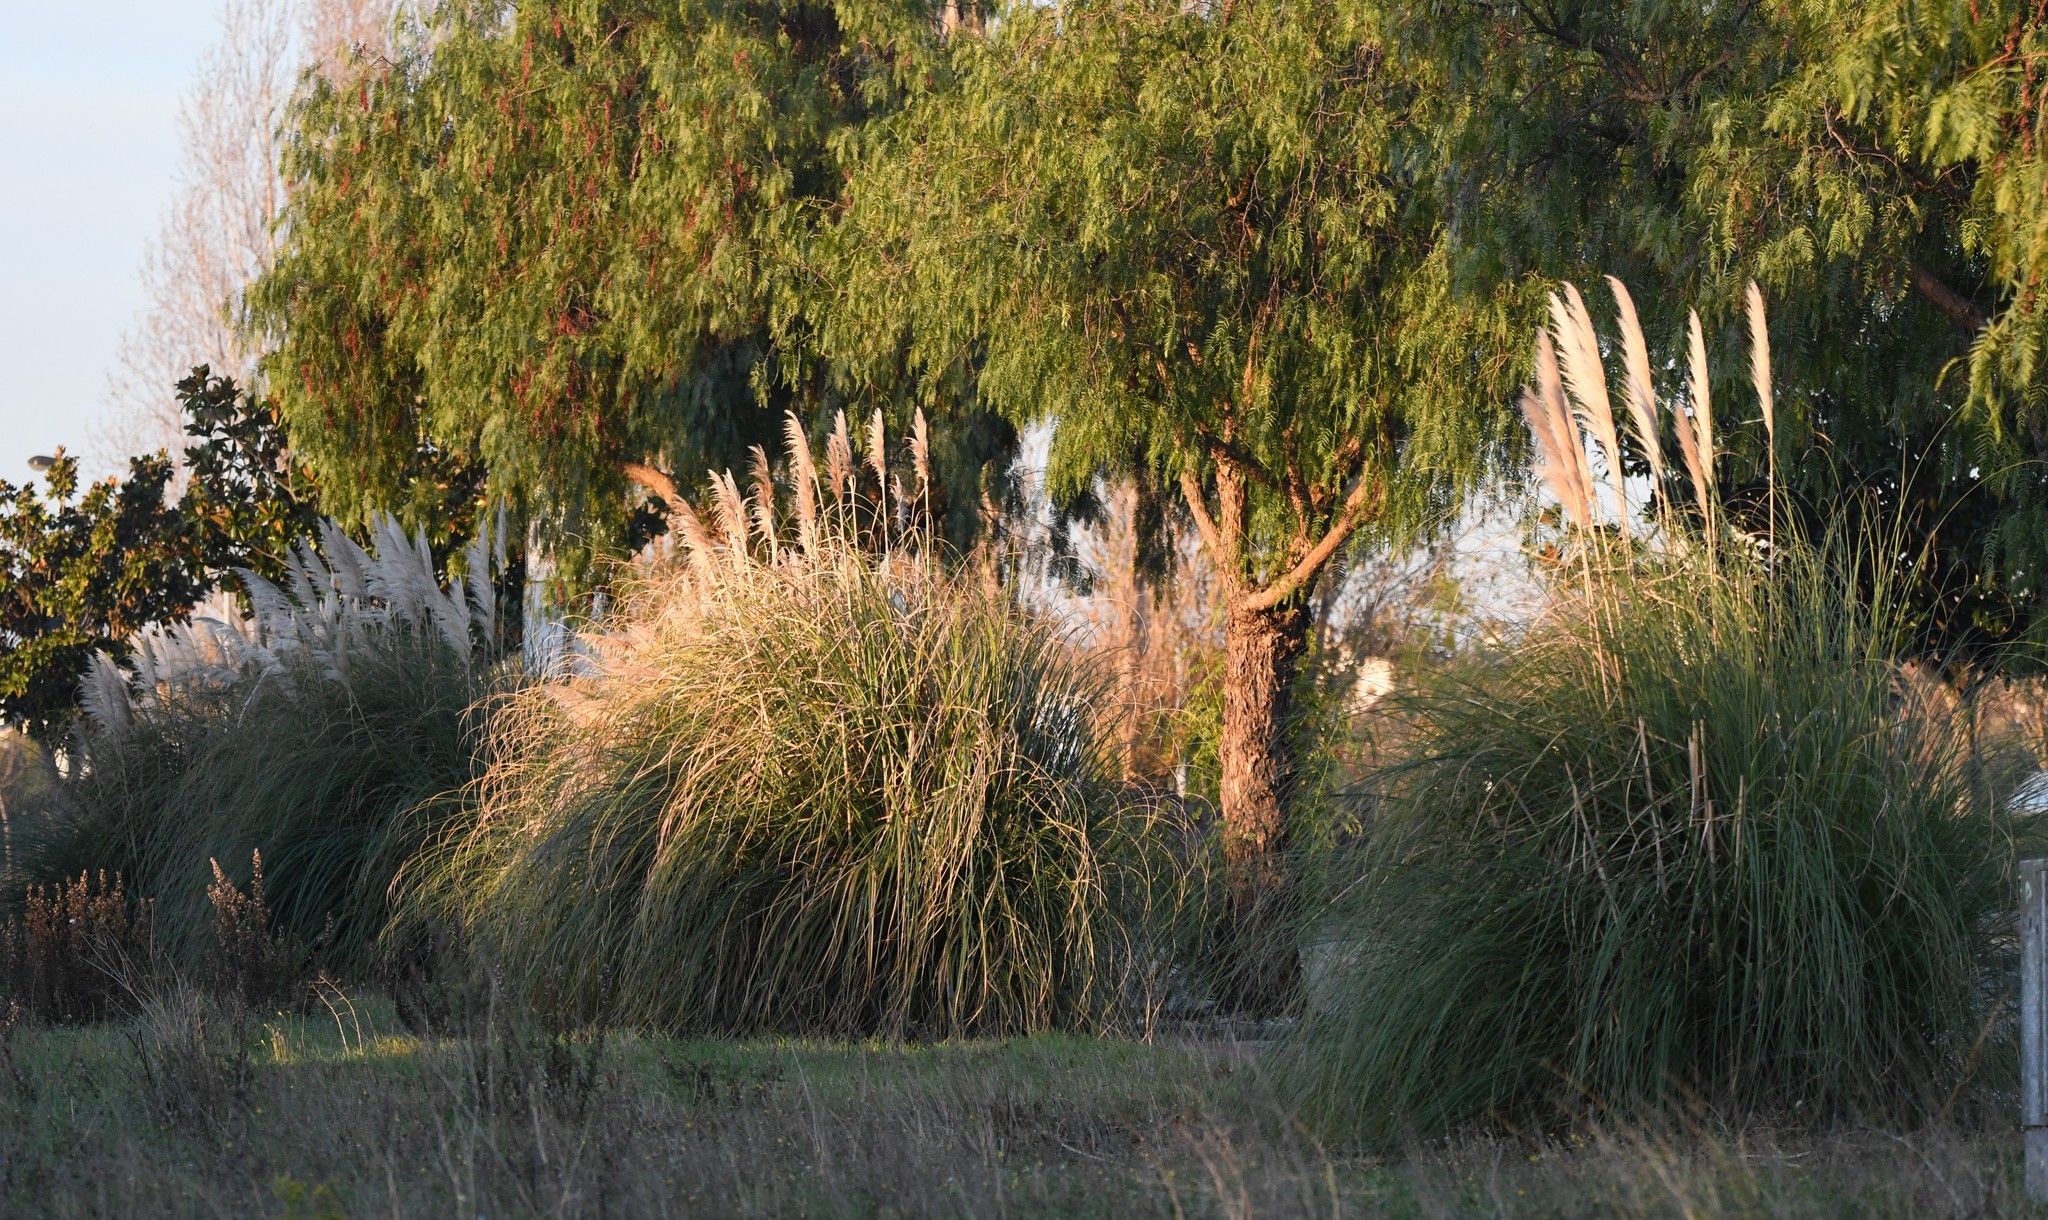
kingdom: Plantae
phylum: Tracheophyta
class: Liliopsida
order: Poales
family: Poaceae
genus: Cortaderia
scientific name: Cortaderia selloana
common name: Uruguayan pampas grass
